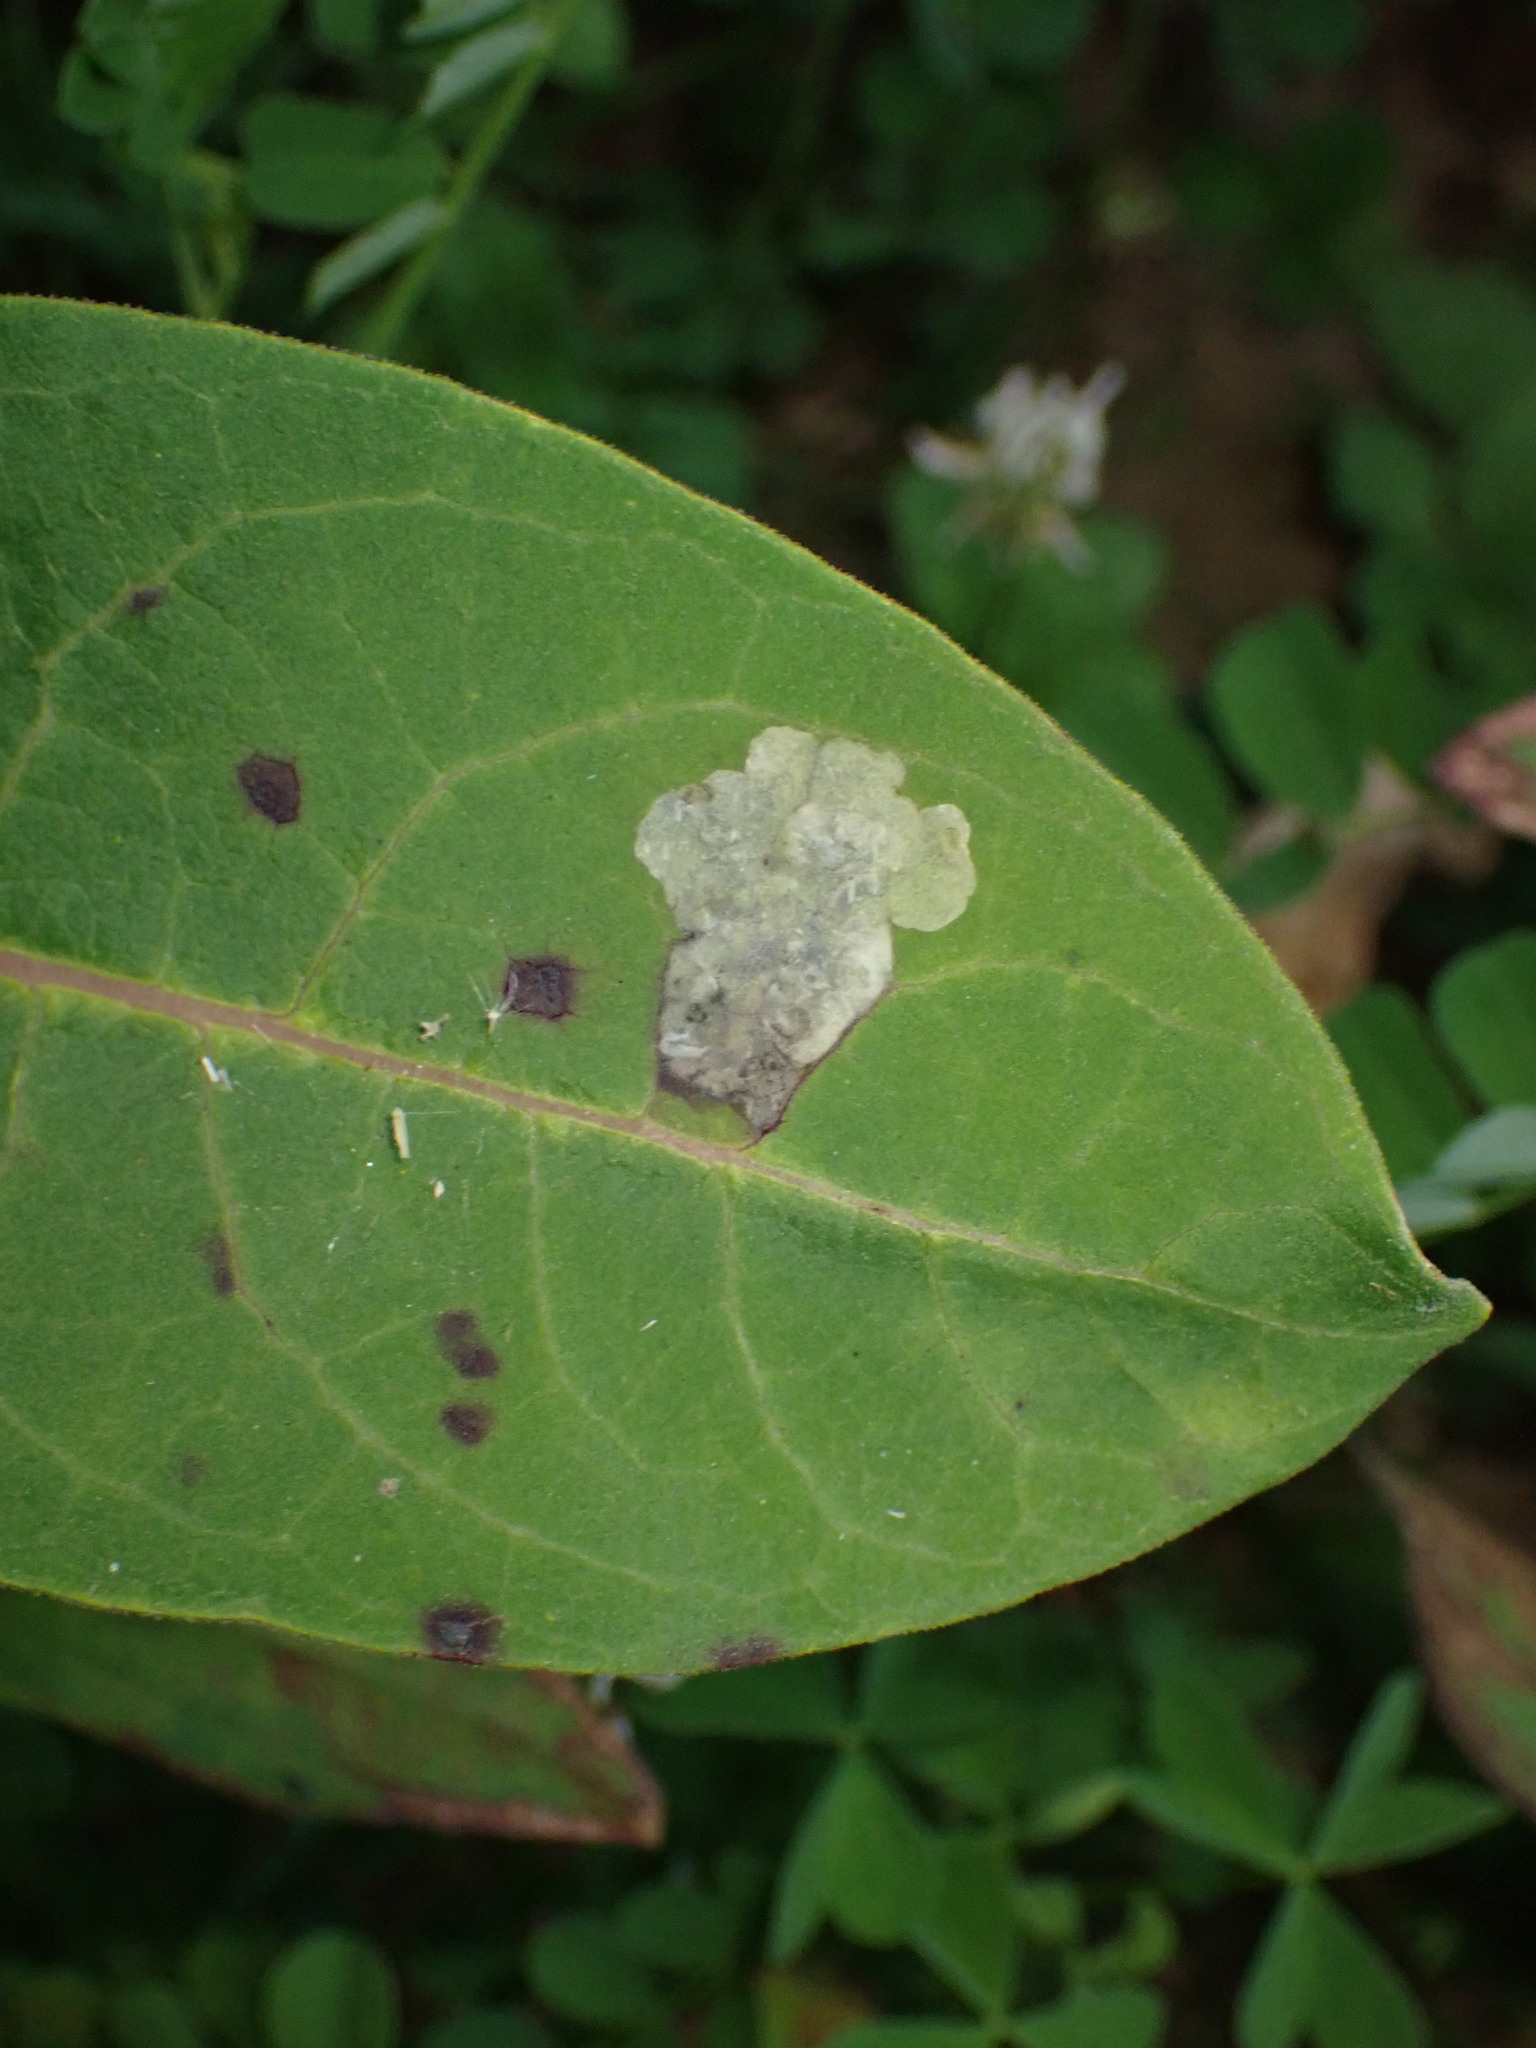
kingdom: Animalia
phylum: Arthropoda
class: Insecta
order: Diptera
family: Agromyzidae
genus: Liriomyza
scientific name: Liriomyza asclepiadis
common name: Milkweed leaf-miner fly
